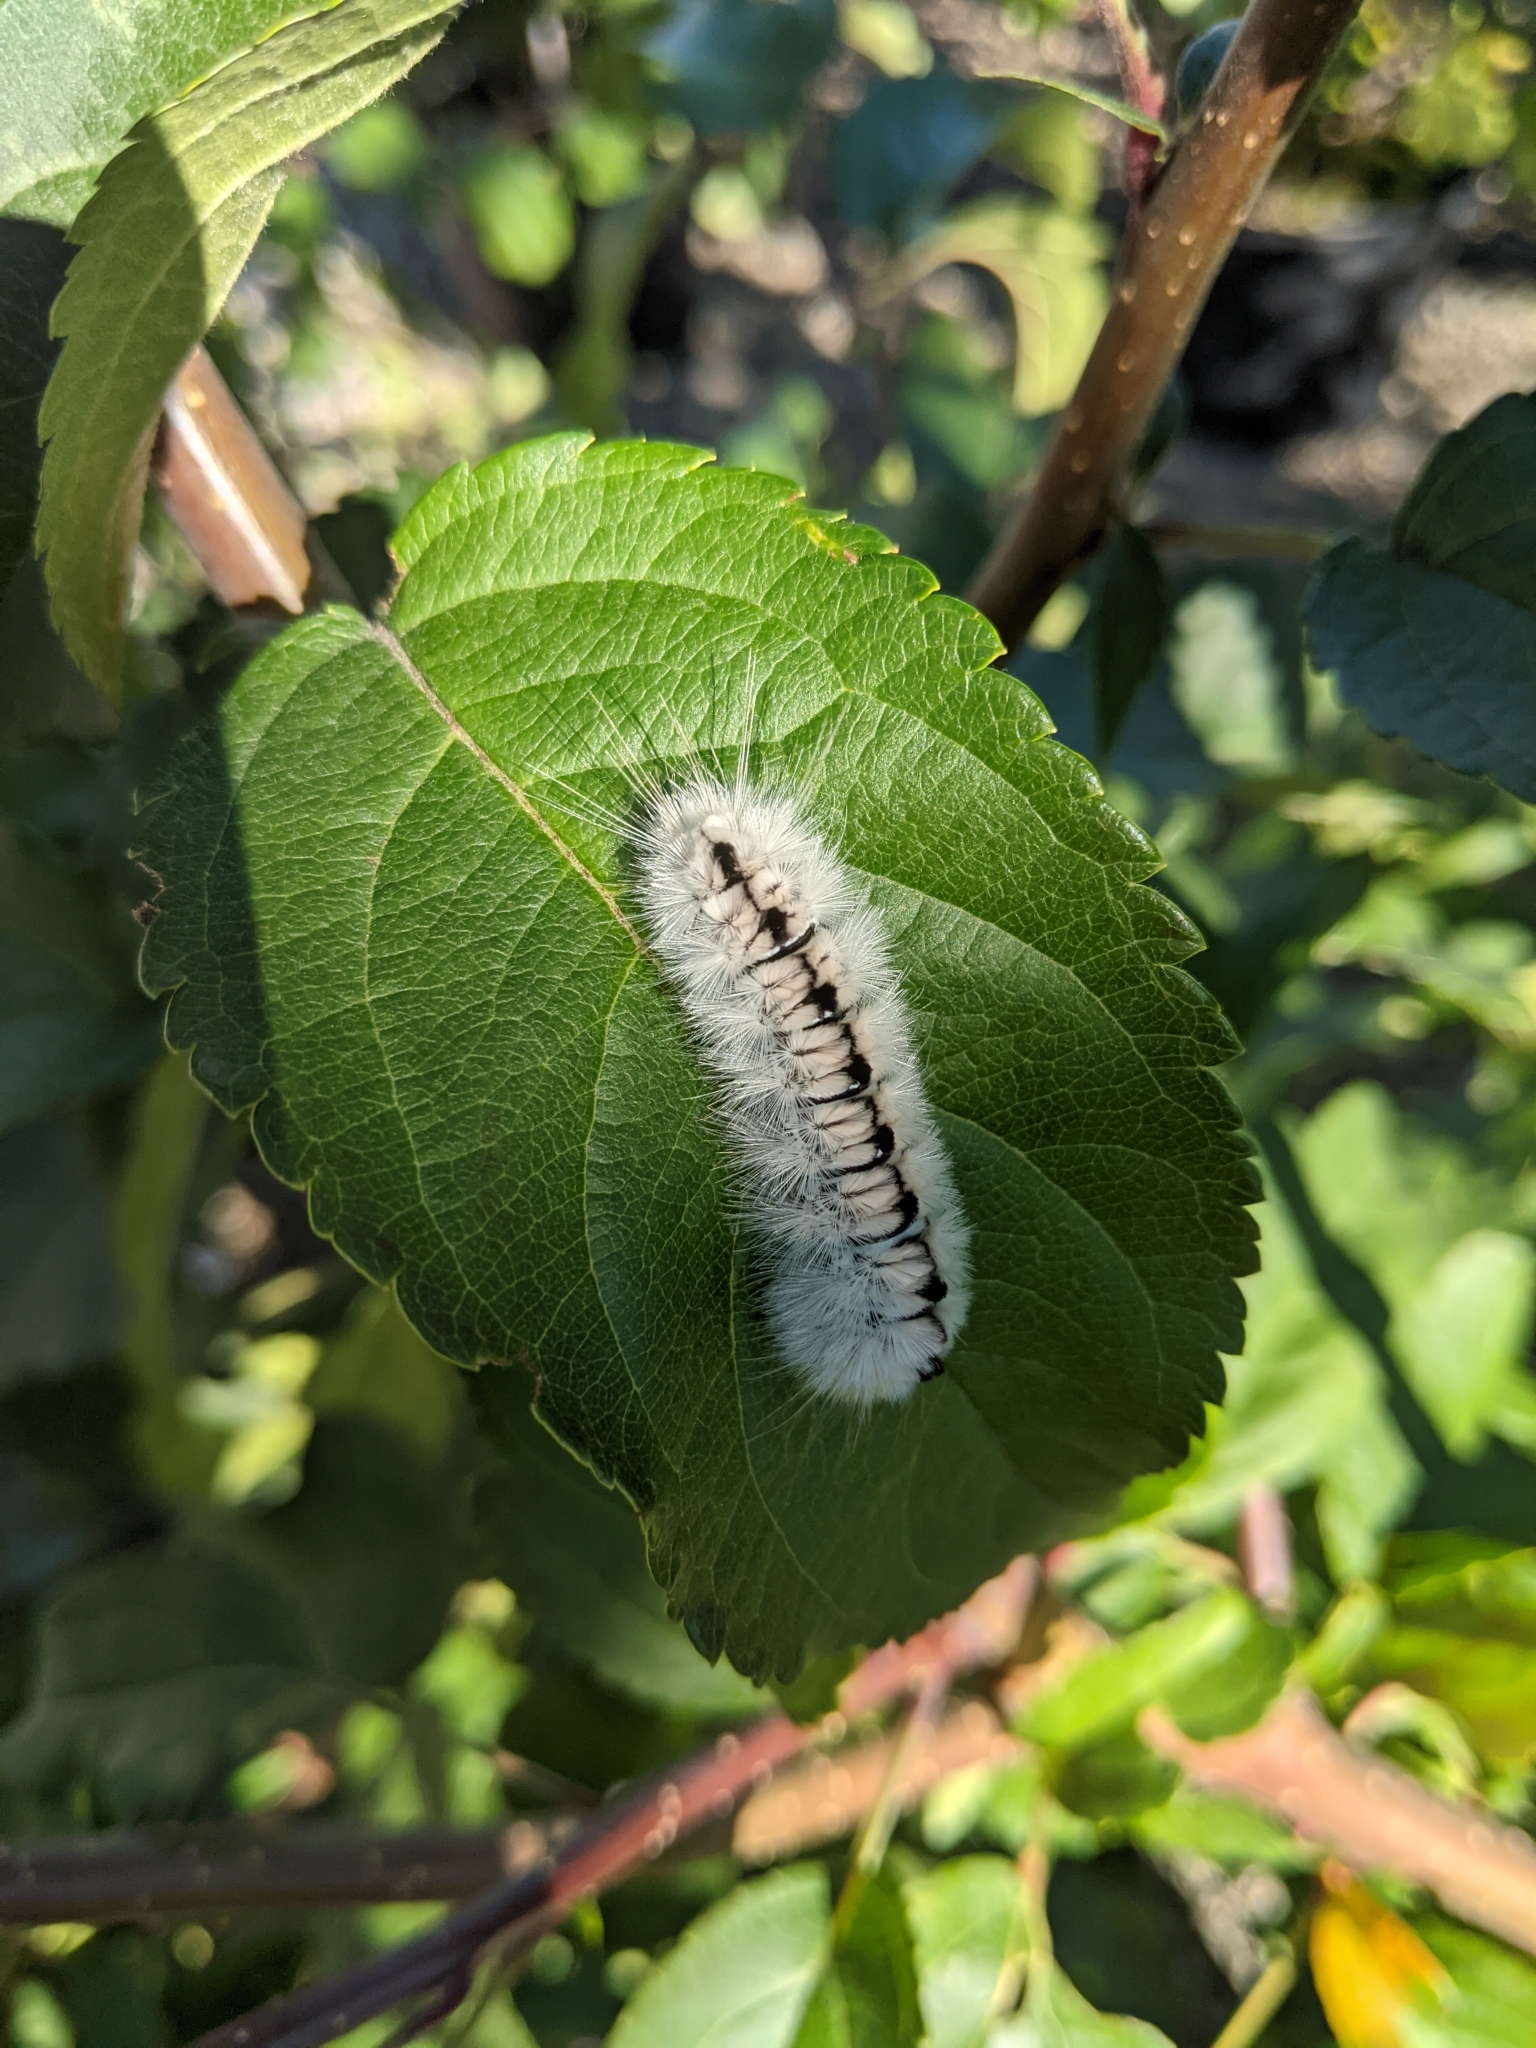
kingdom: Animalia
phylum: Arthropoda
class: Insecta
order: Lepidoptera
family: Erebidae
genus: Lophocampa
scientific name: Lophocampa caryae
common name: Hickory tussock moth
